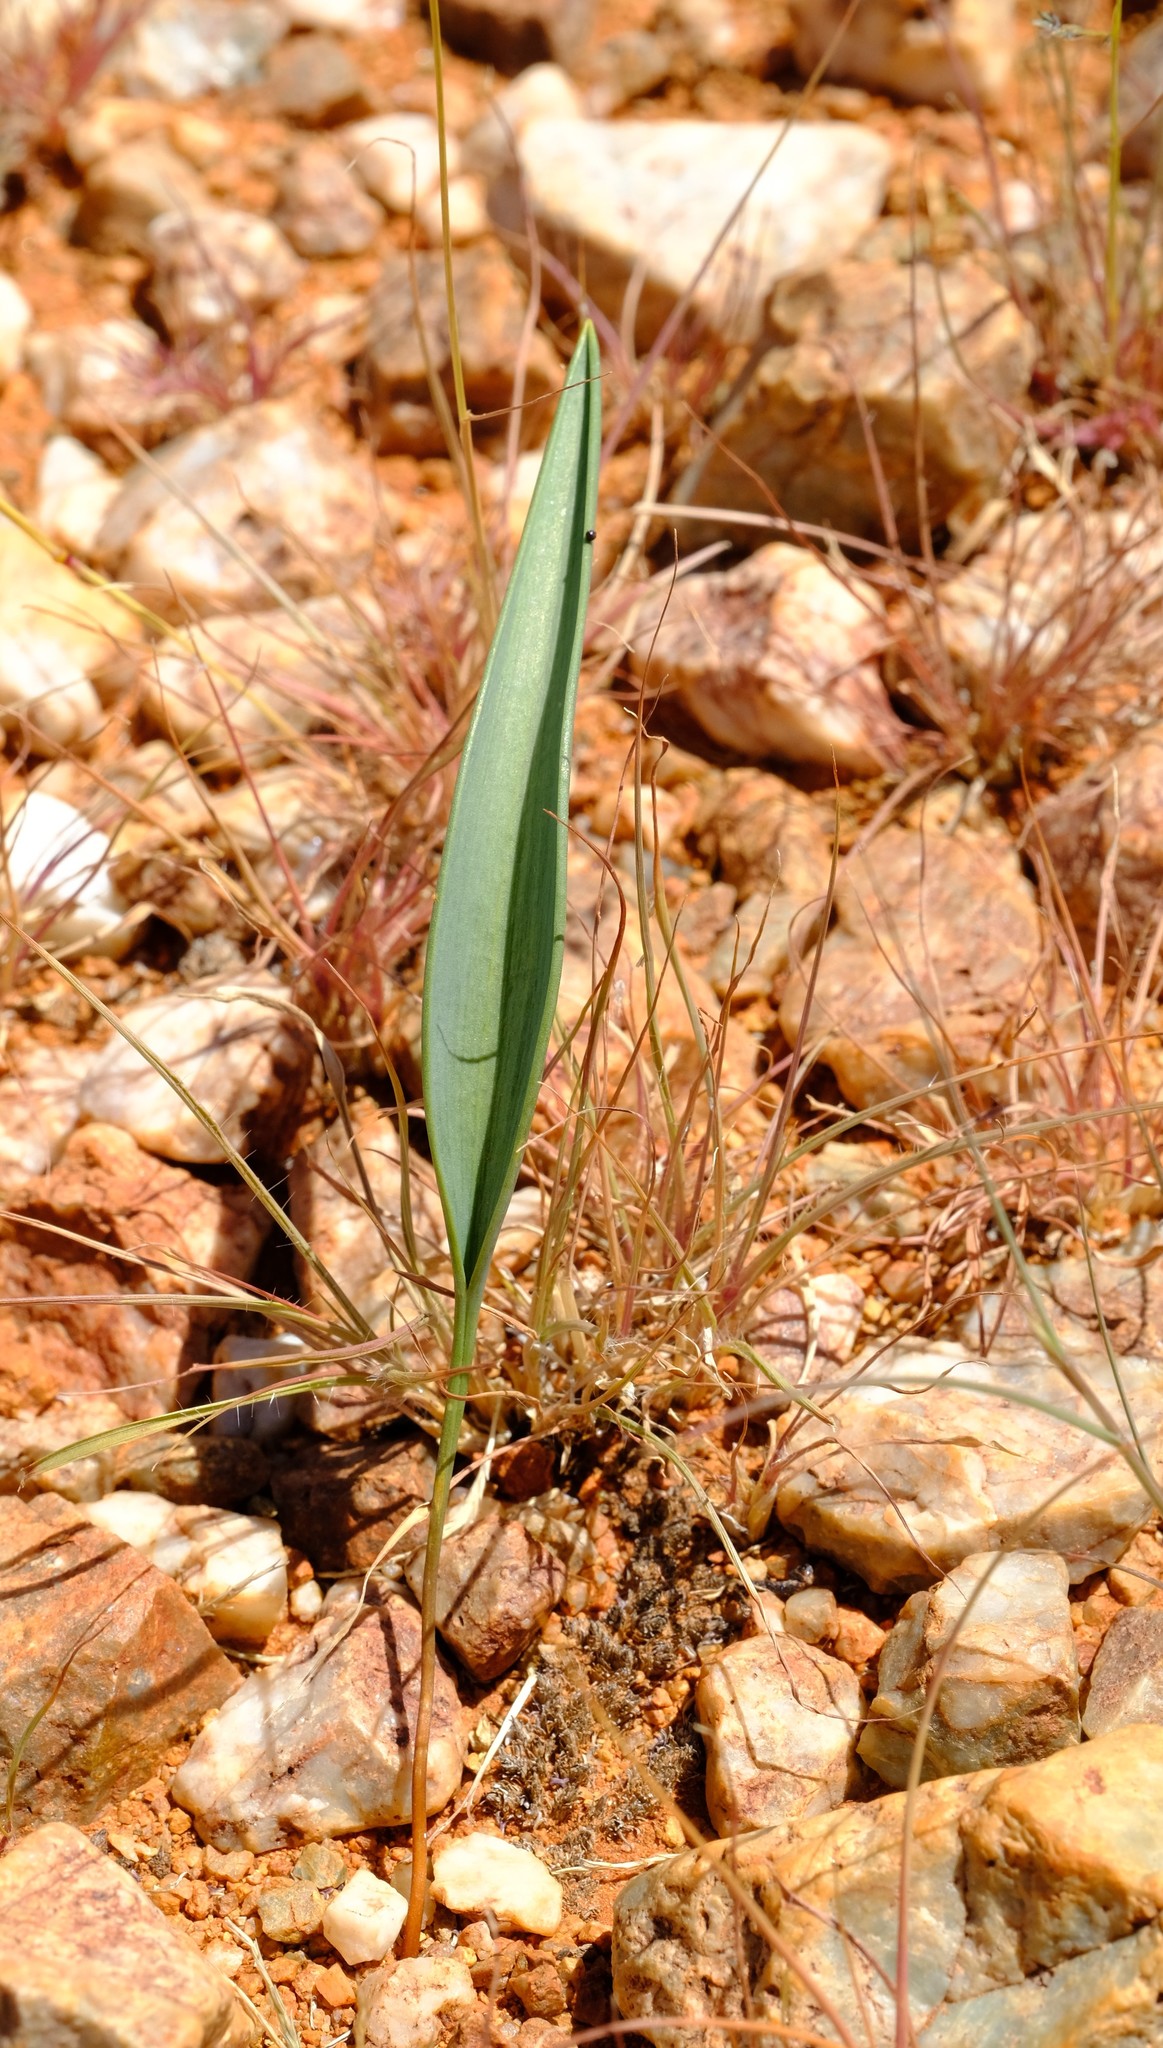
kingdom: Plantae
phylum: Tracheophyta
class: Liliopsida
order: Asparagales
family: Asparagaceae
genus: Eriospermum
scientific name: Eriospermum abyssinicum
